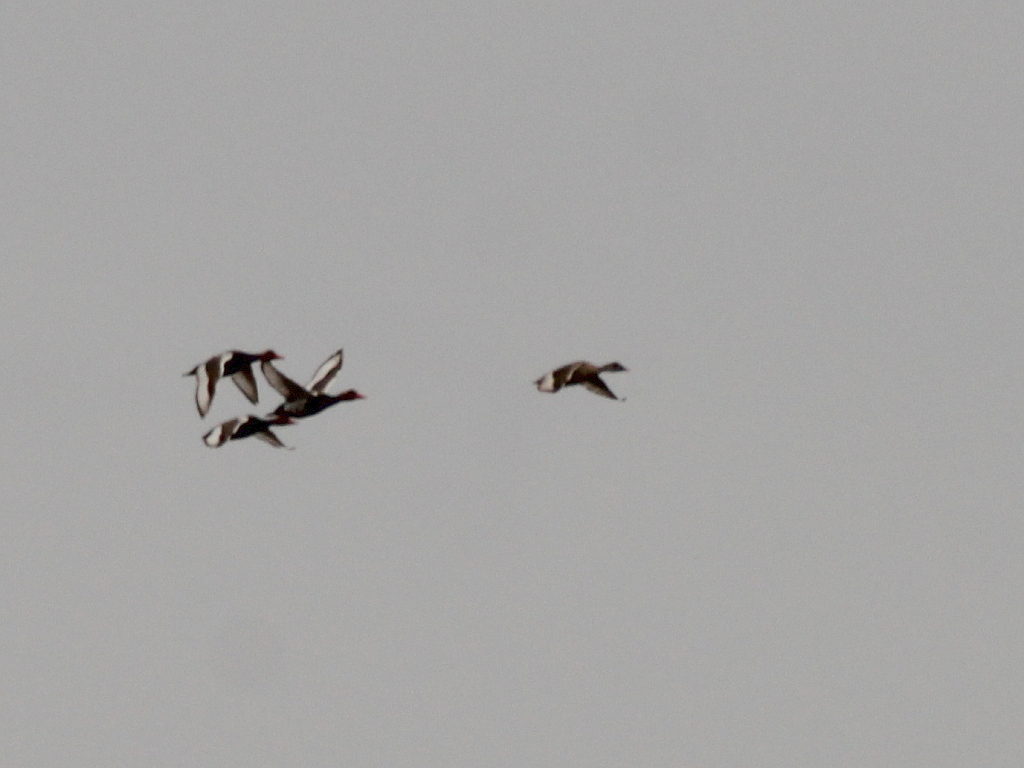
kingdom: Animalia
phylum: Chordata
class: Aves
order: Anseriformes
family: Anatidae
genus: Netta
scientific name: Netta rufina
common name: Red-crested pochard
